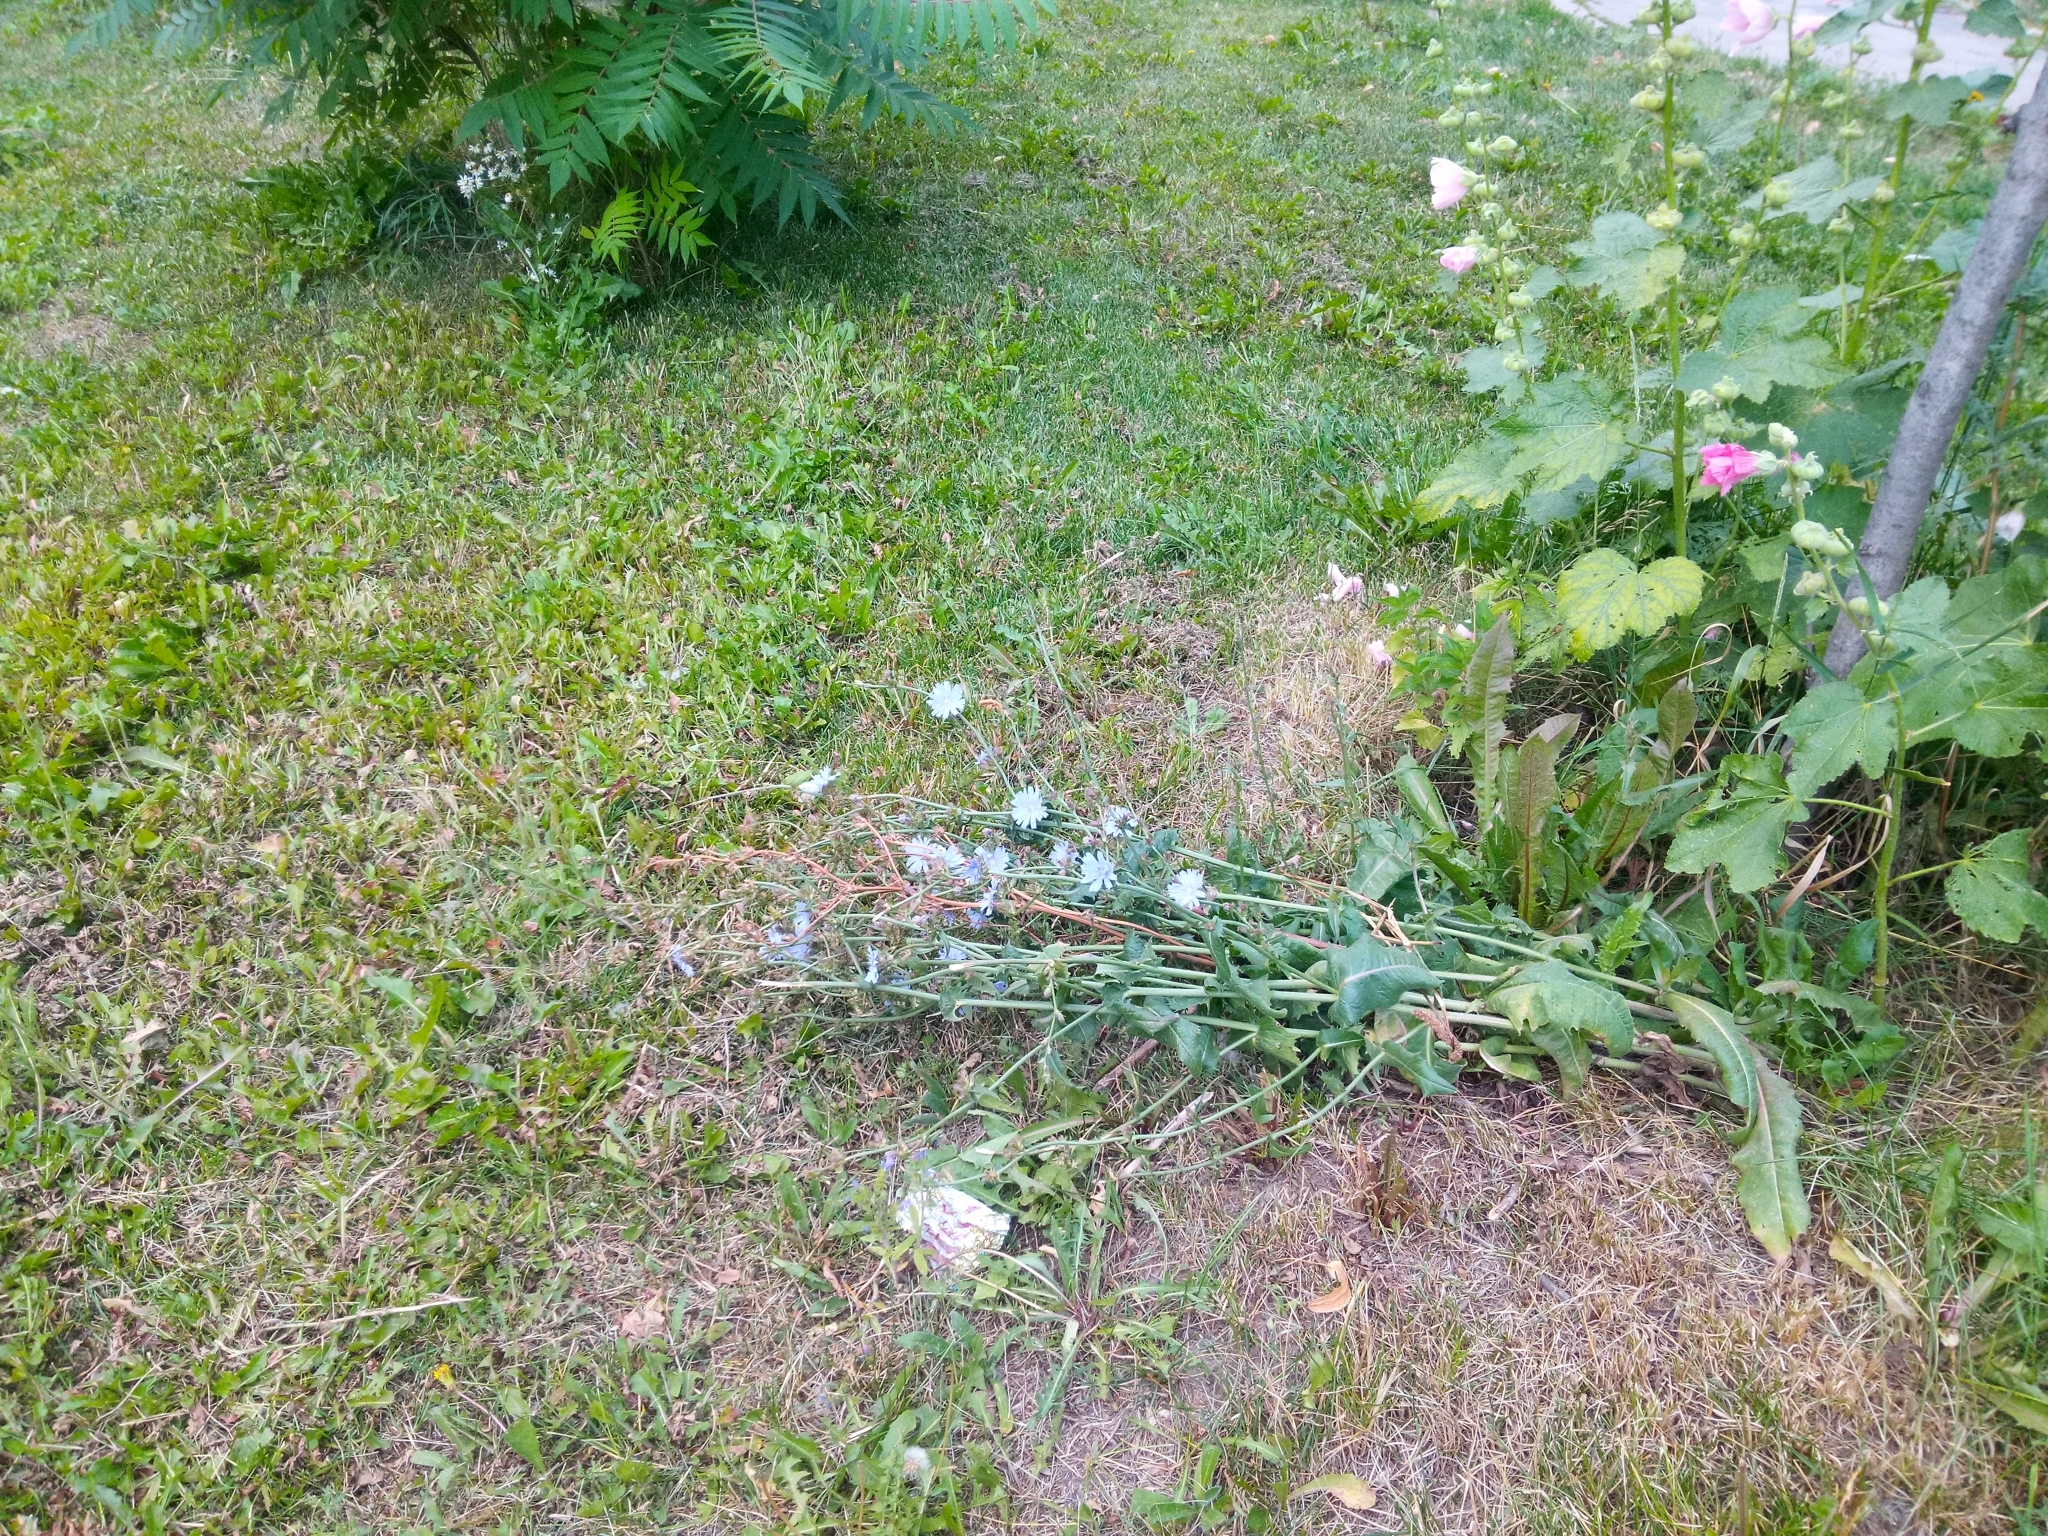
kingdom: Plantae
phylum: Tracheophyta
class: Magnoliopsida
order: Asterales
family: Asteraceae
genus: Cichorium
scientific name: Cichorium intybus
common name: Chicory
